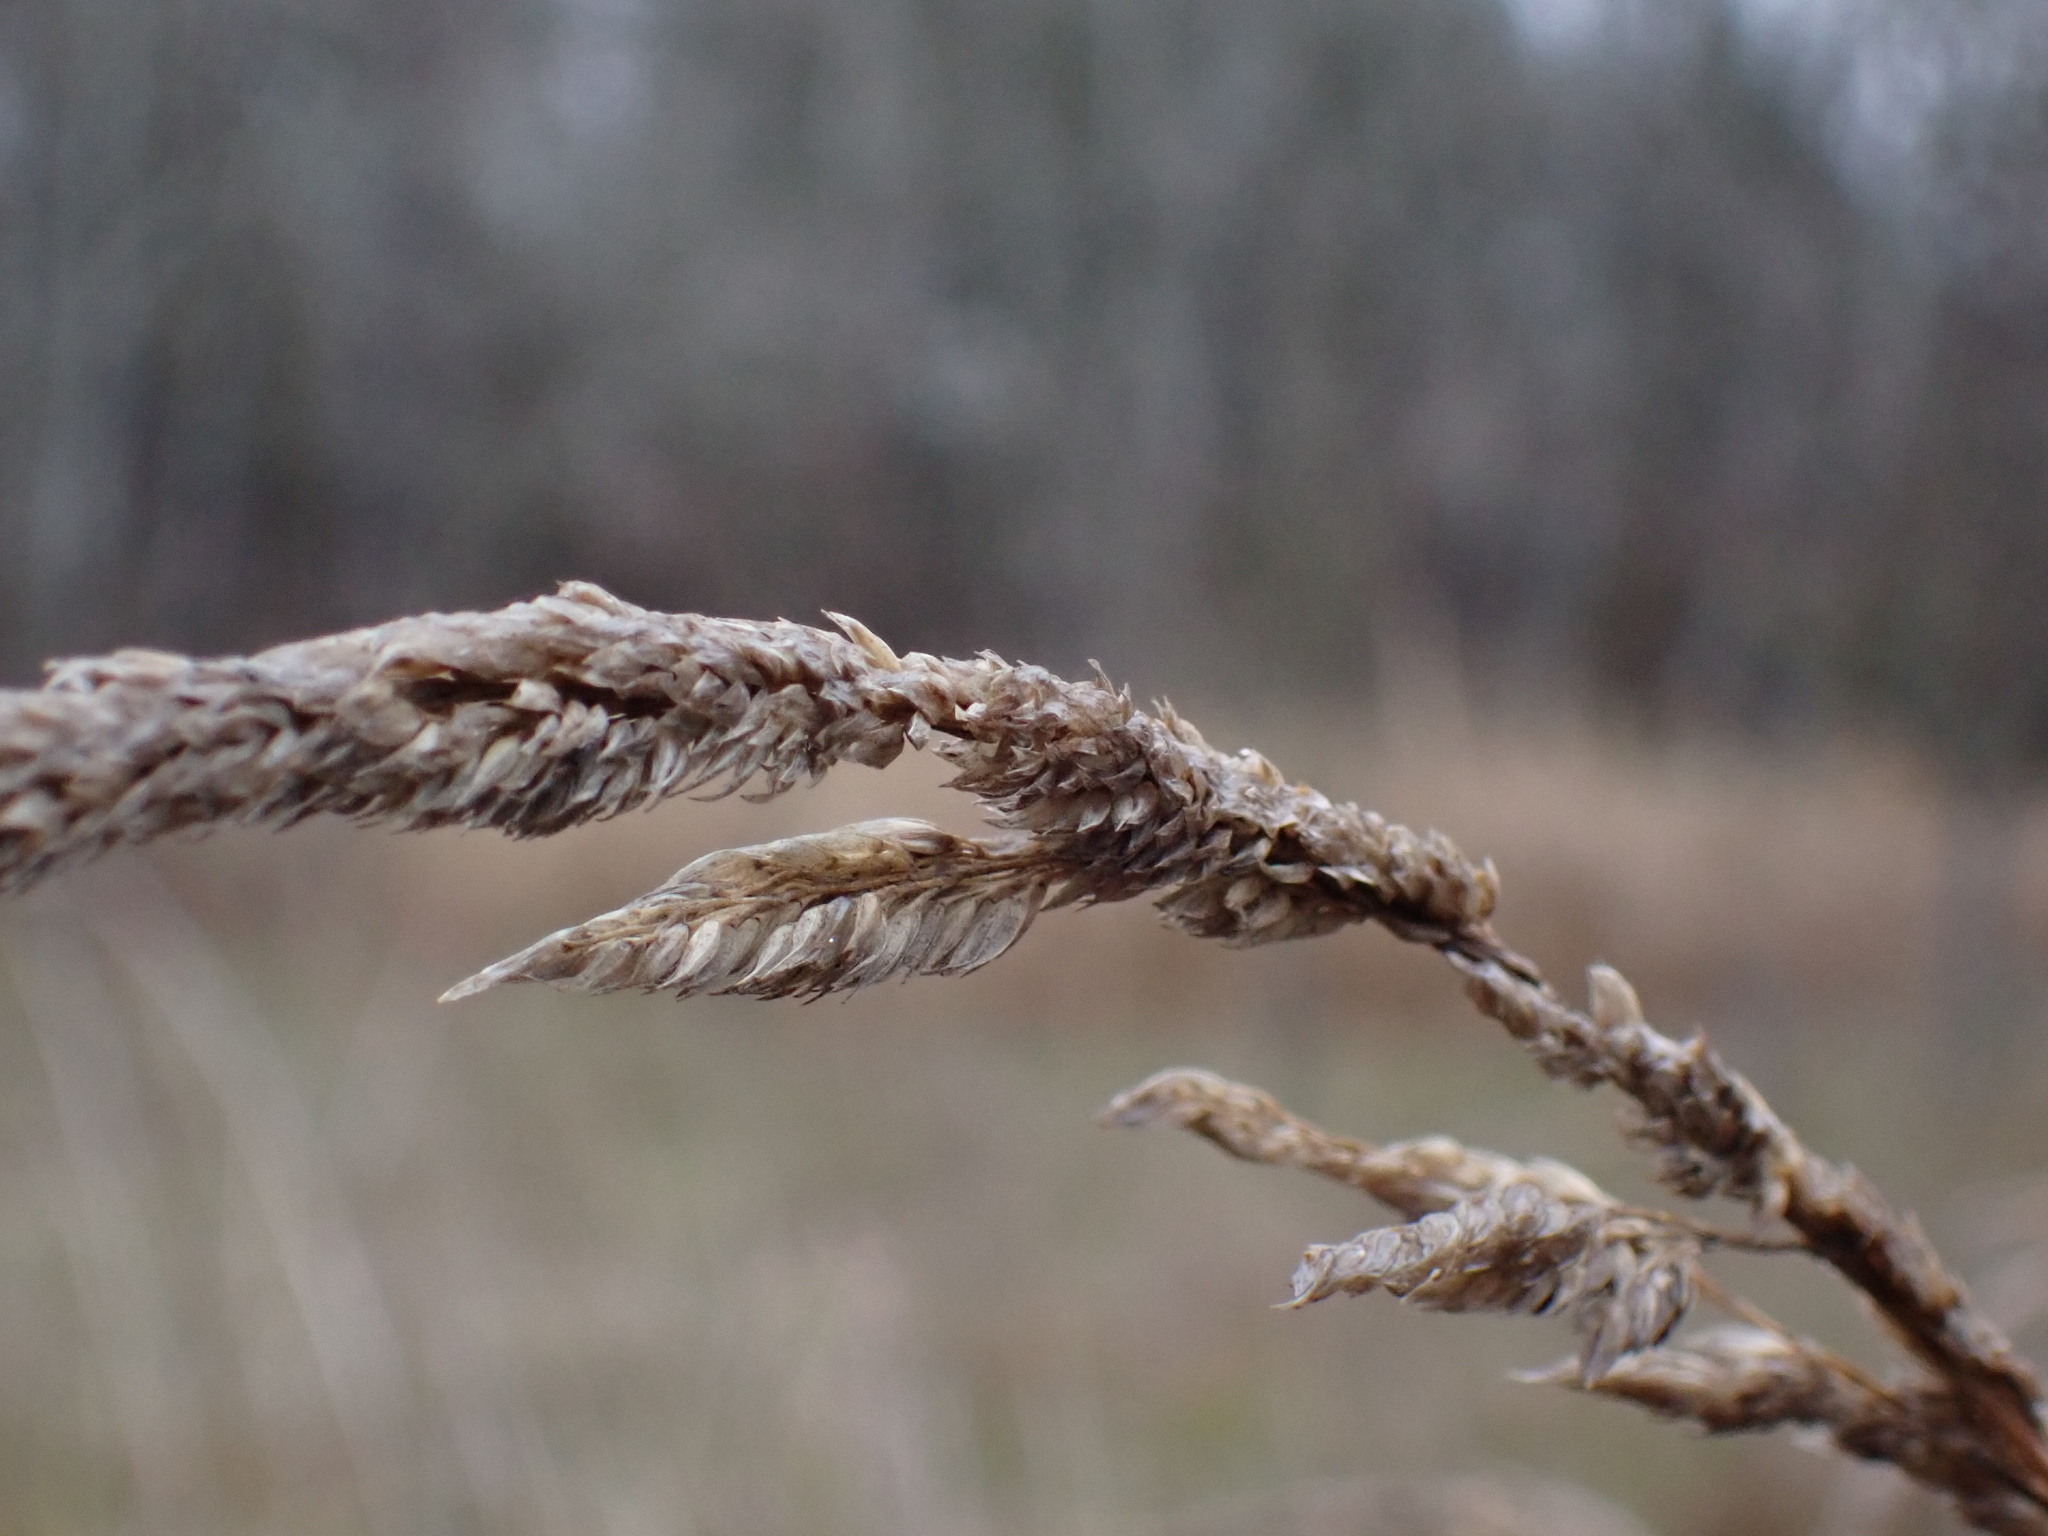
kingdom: Plantae
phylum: Tracheophyta
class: Liliopsida
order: Poales
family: Poaceae
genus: Phalaris
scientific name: Phalaris arundinacea
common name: Reed canary-grass
